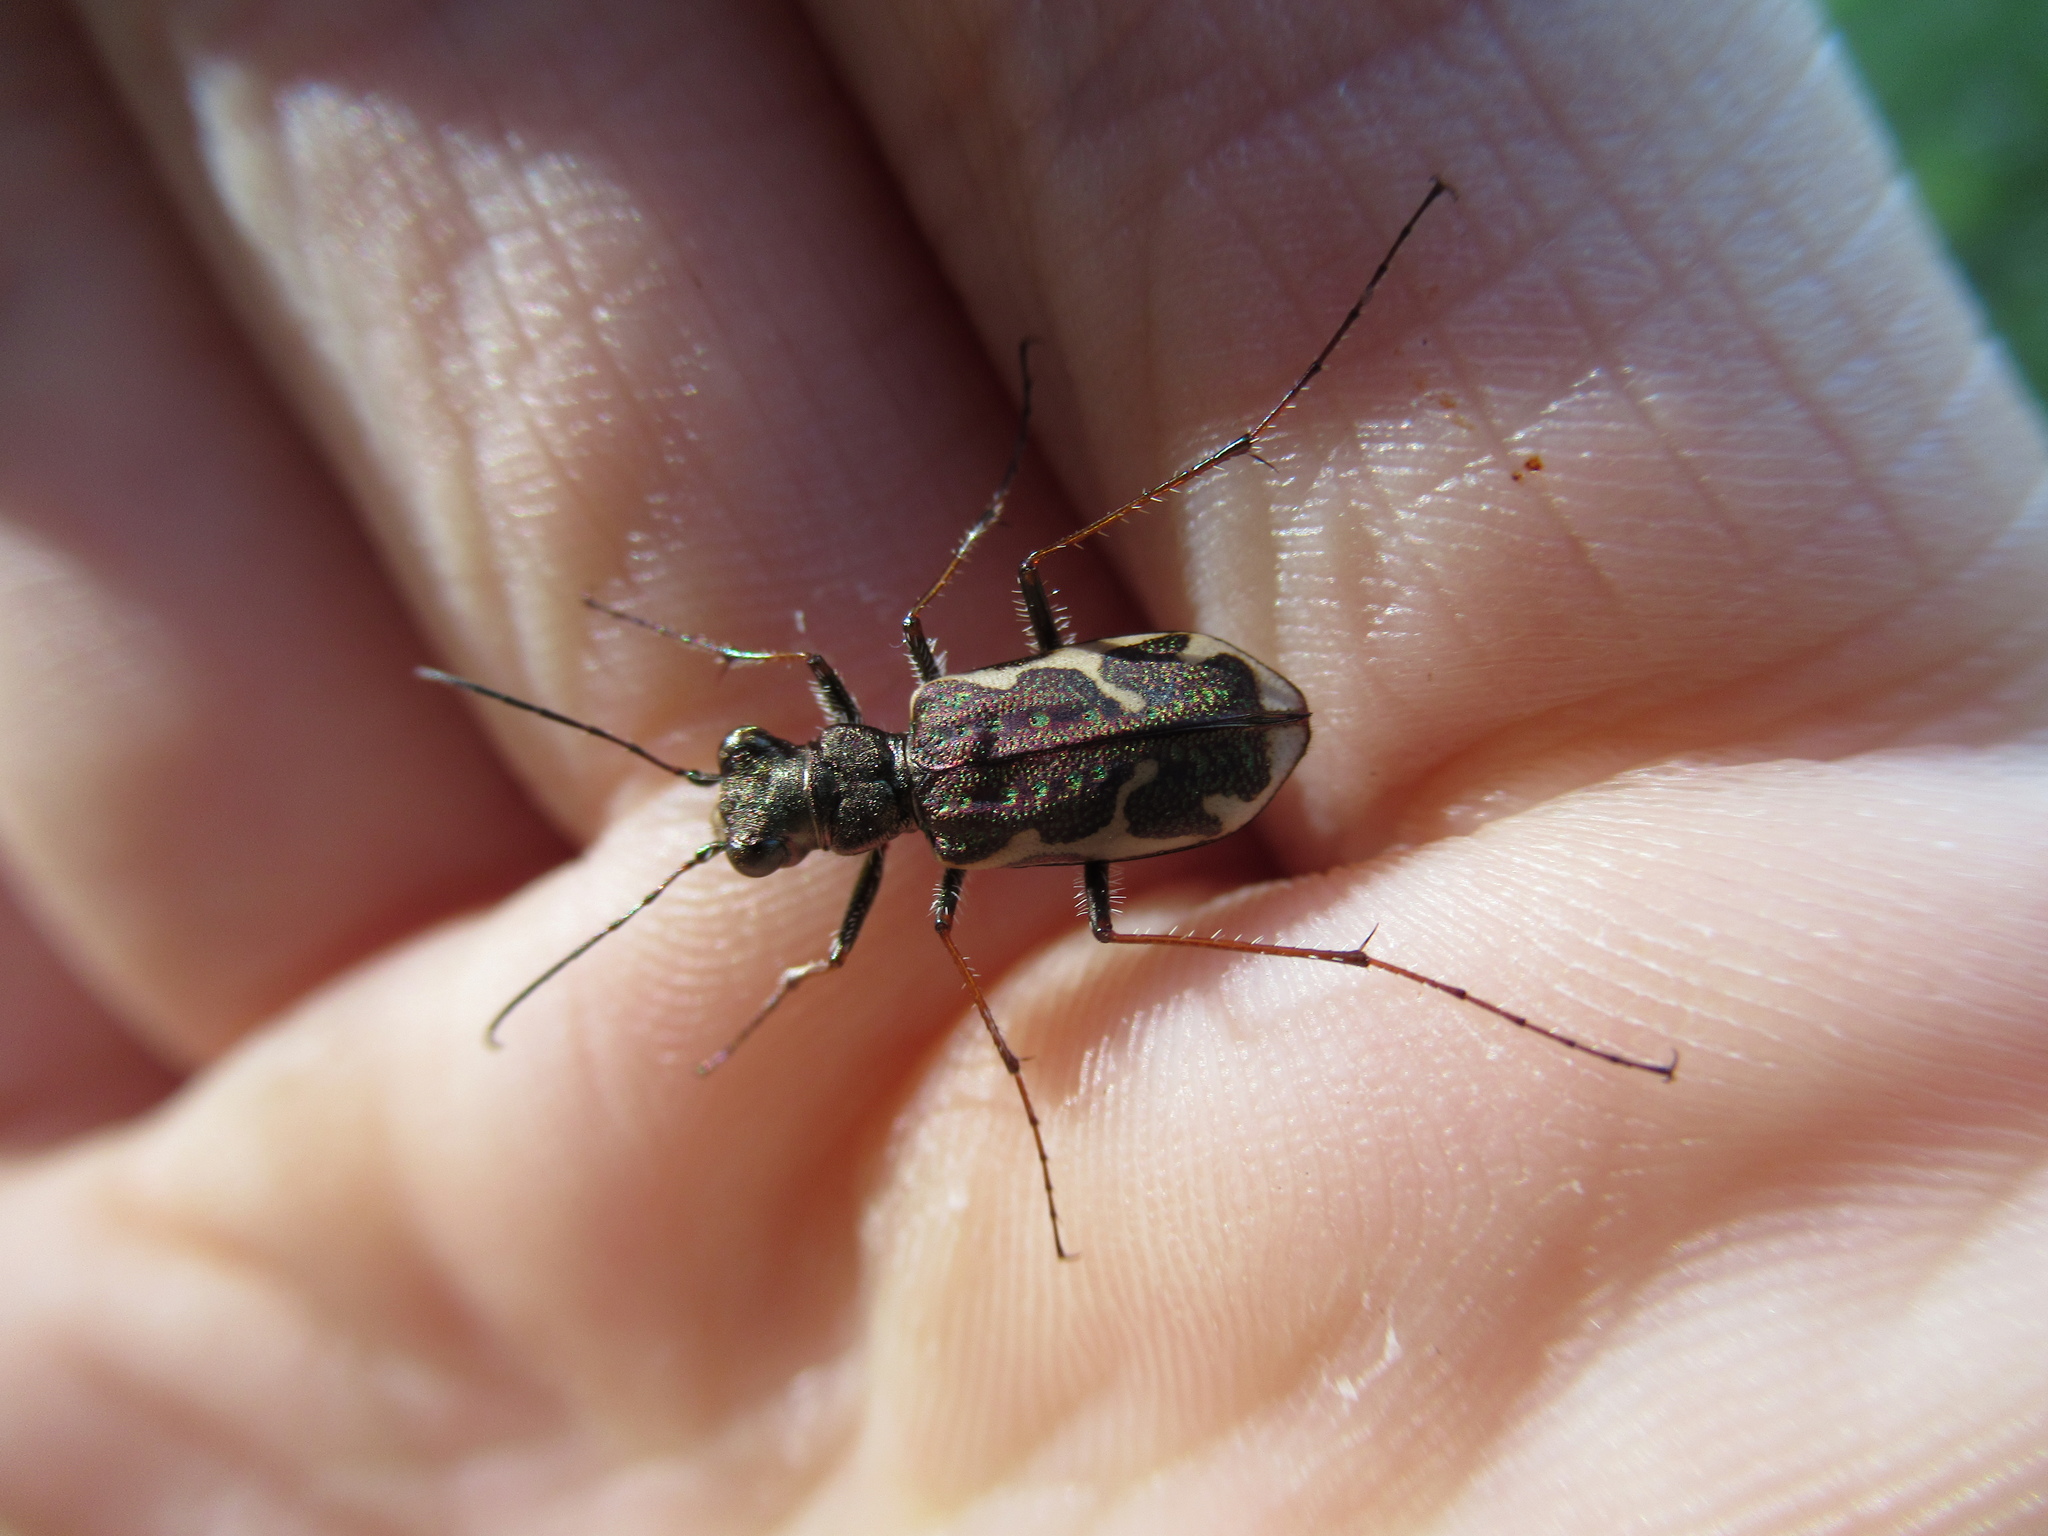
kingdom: Animalia
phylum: Arthropoda
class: Insecta
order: Coleoptera
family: Carabidae
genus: Neocicindela
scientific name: Neocicindela tuberculata
